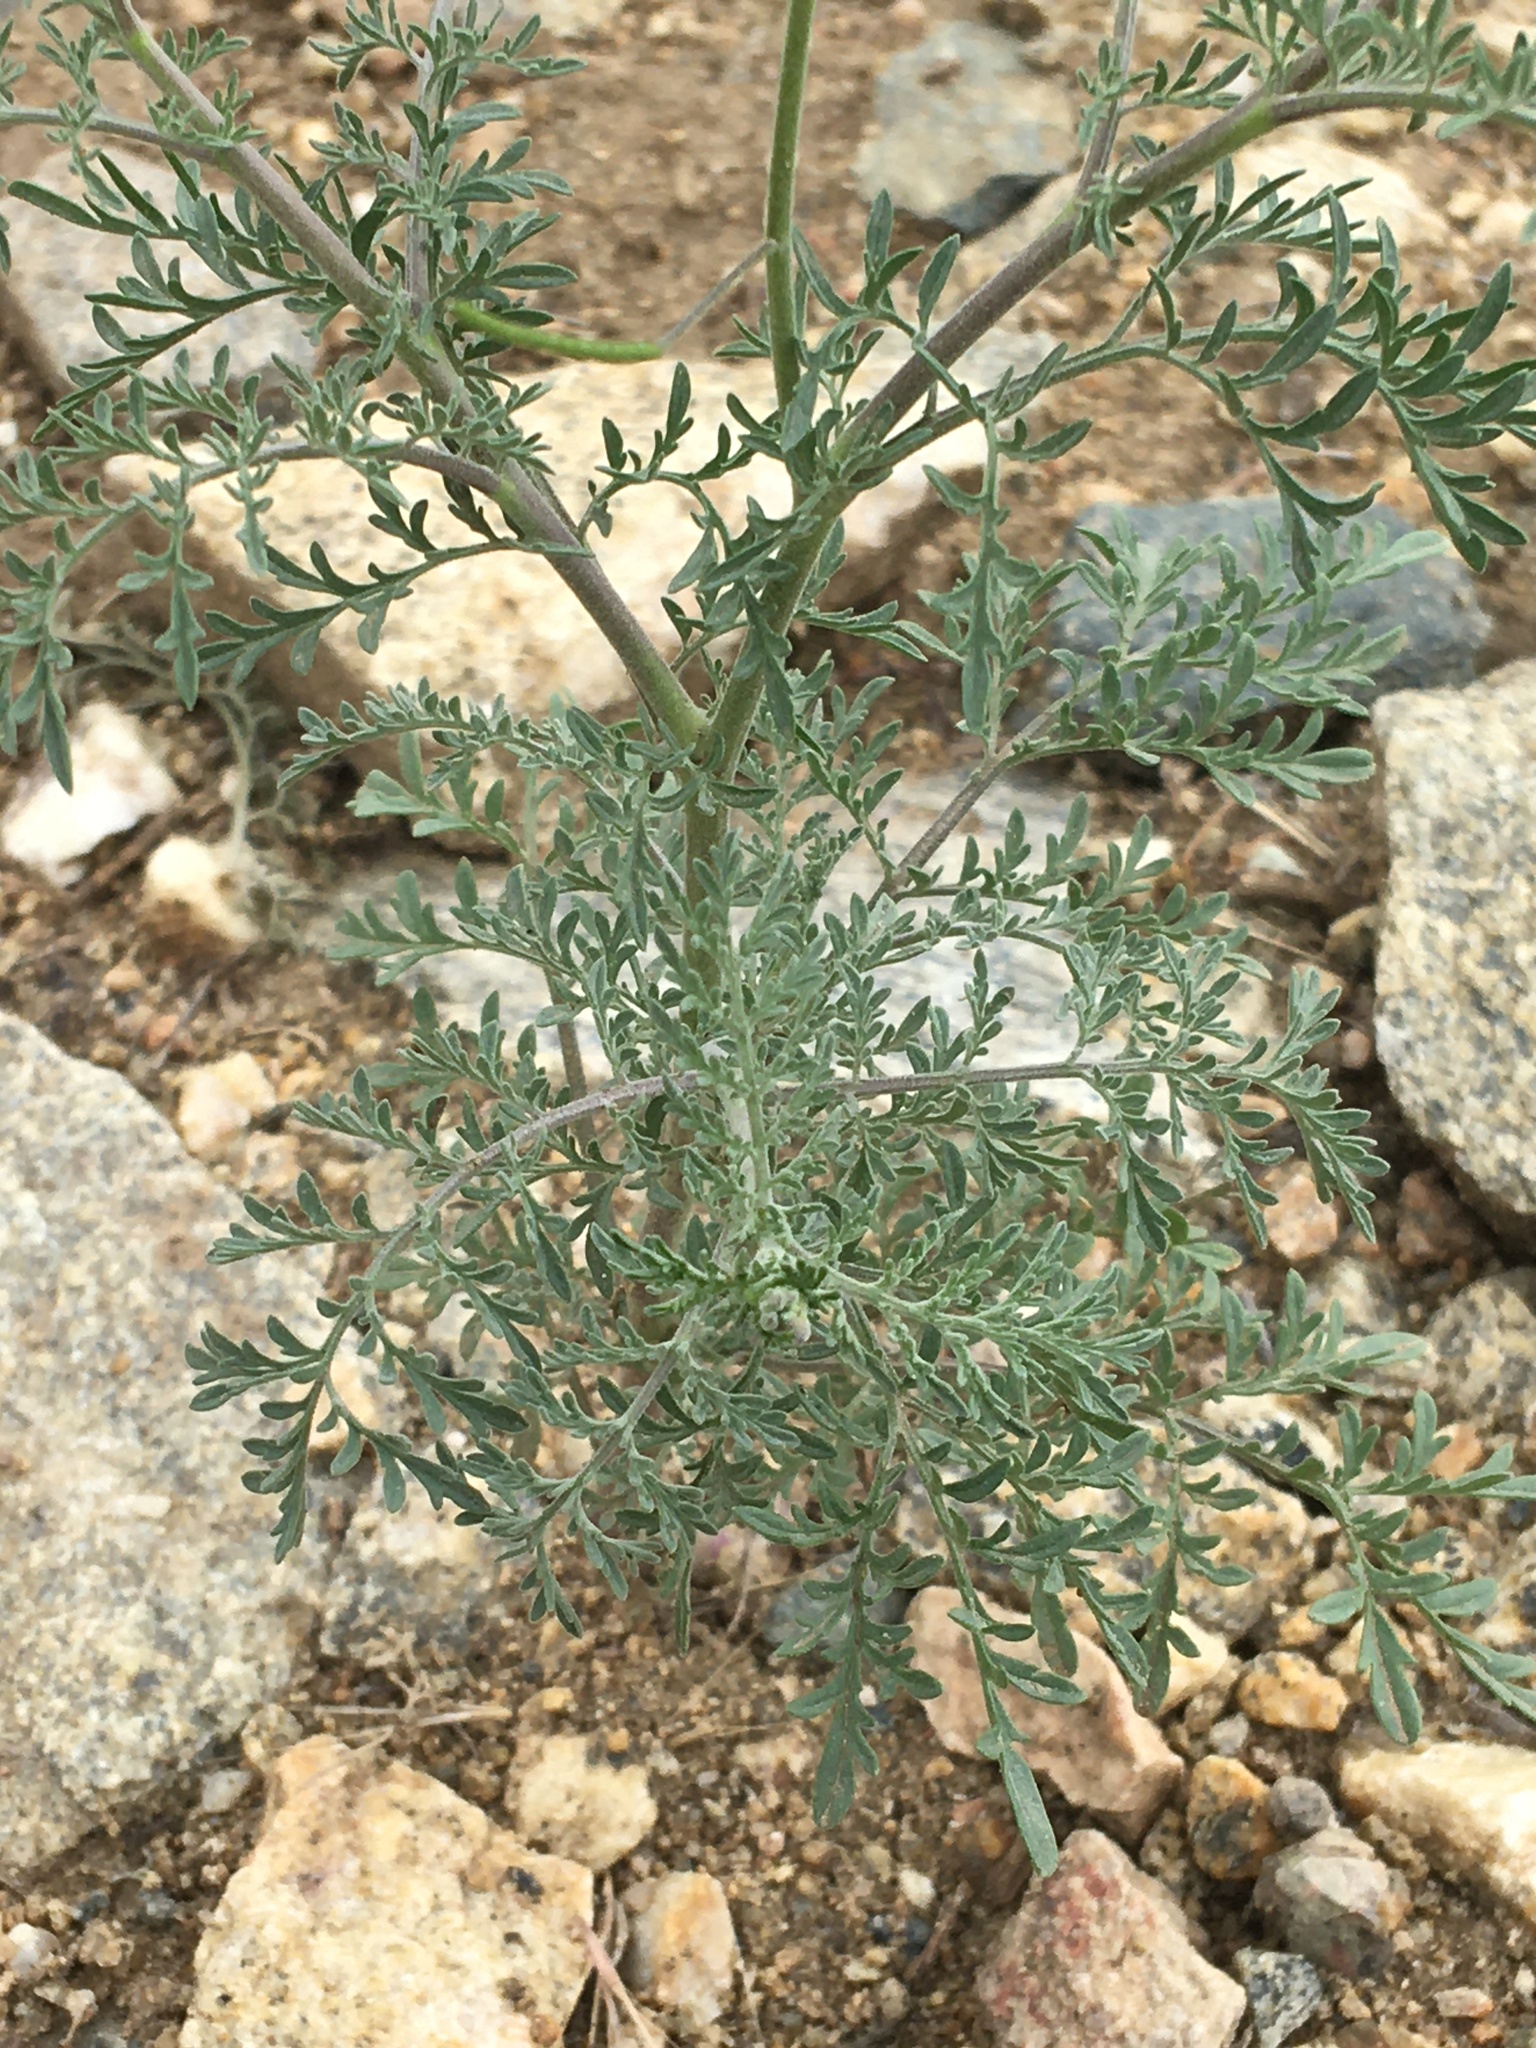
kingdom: Plantae
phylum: Tracheophyta
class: Magnoliopsida
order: Brassicales
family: Brassicaceae
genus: Descurainia
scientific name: Descurainia sophia
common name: Flixweed
